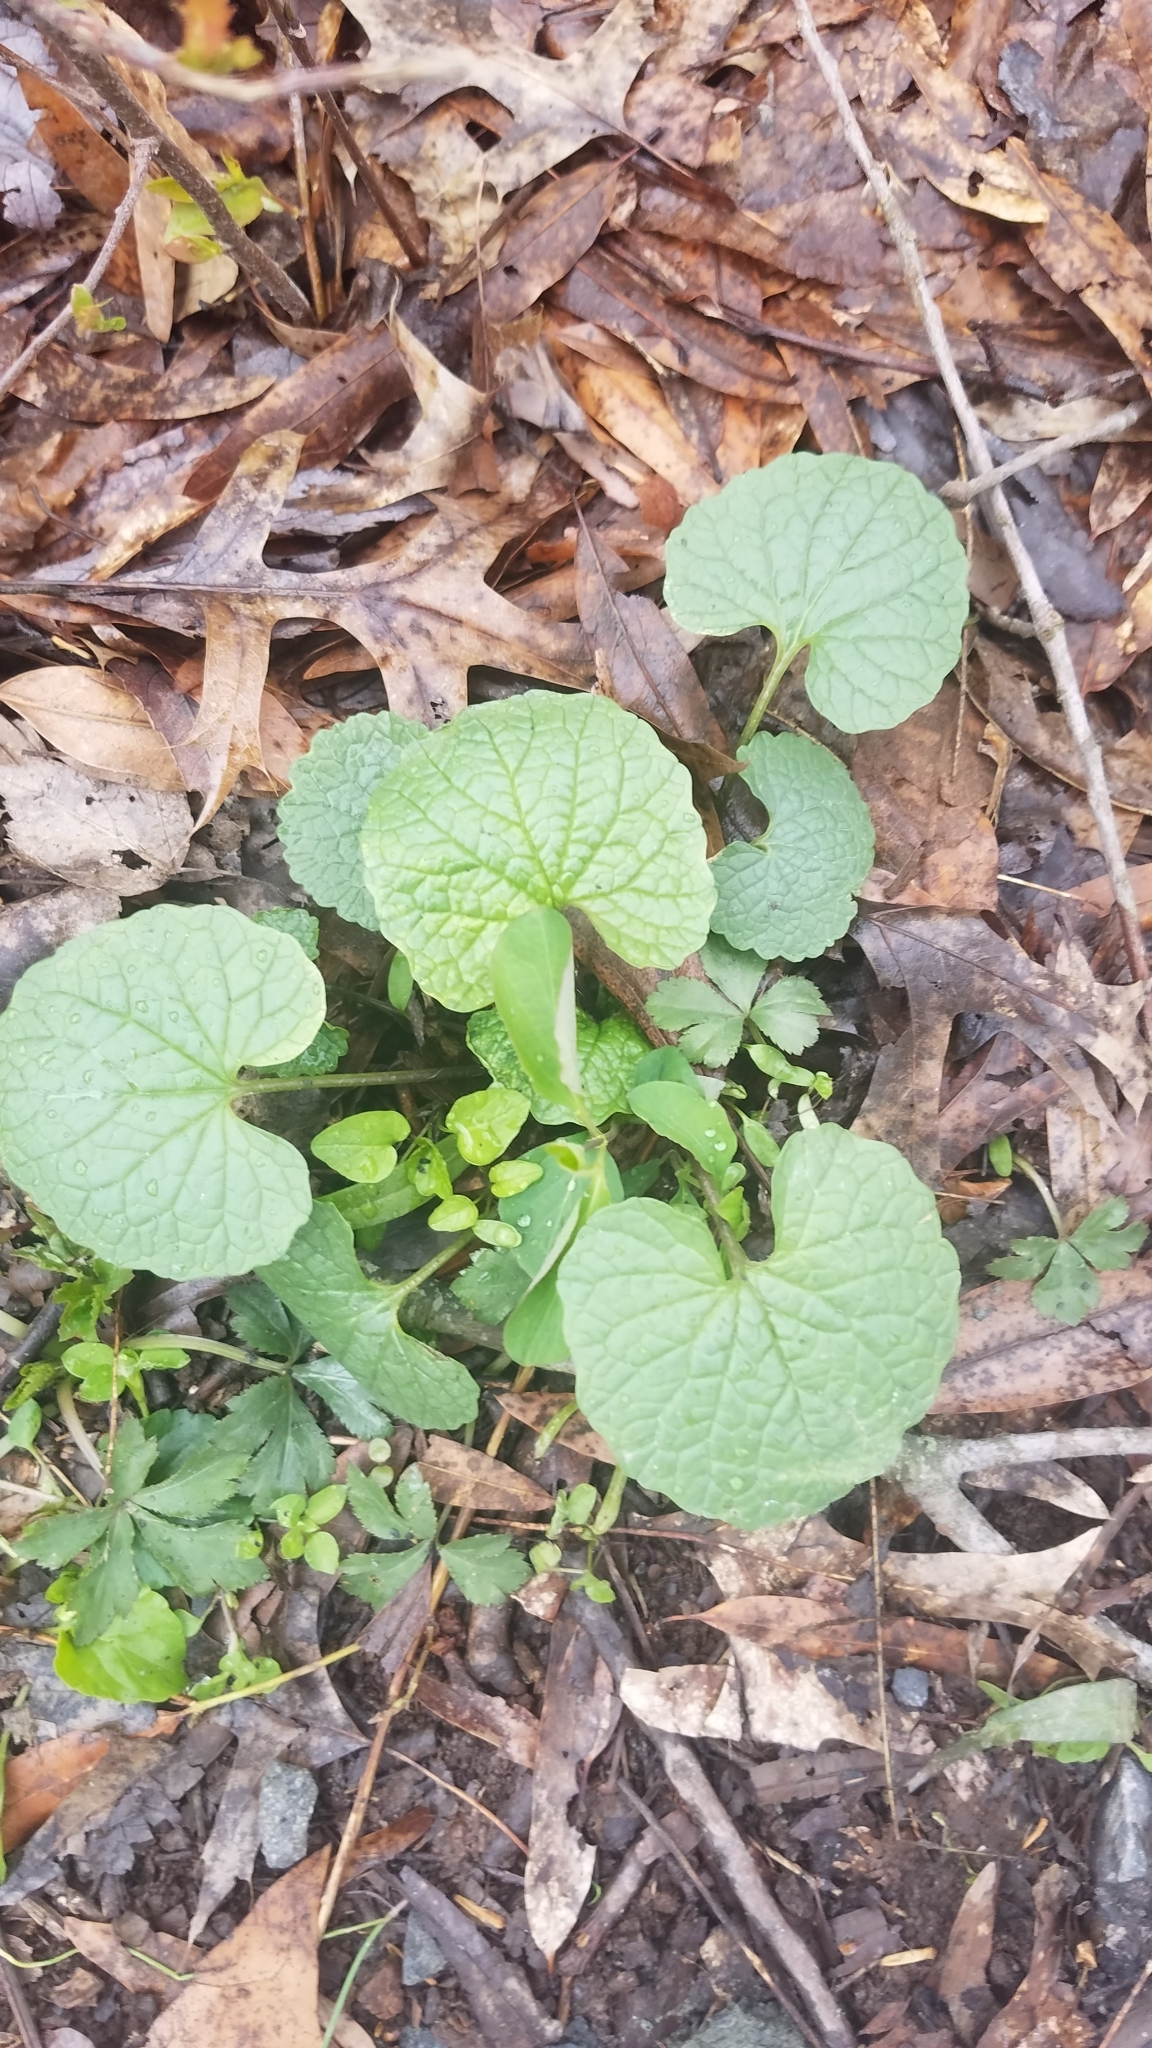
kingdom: Plantae
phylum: Tracheophyta
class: Magnoliopsida
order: Brassicales
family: Brassicaceae
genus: Alliaria
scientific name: Alliaria petiolata
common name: Garlic mustard
